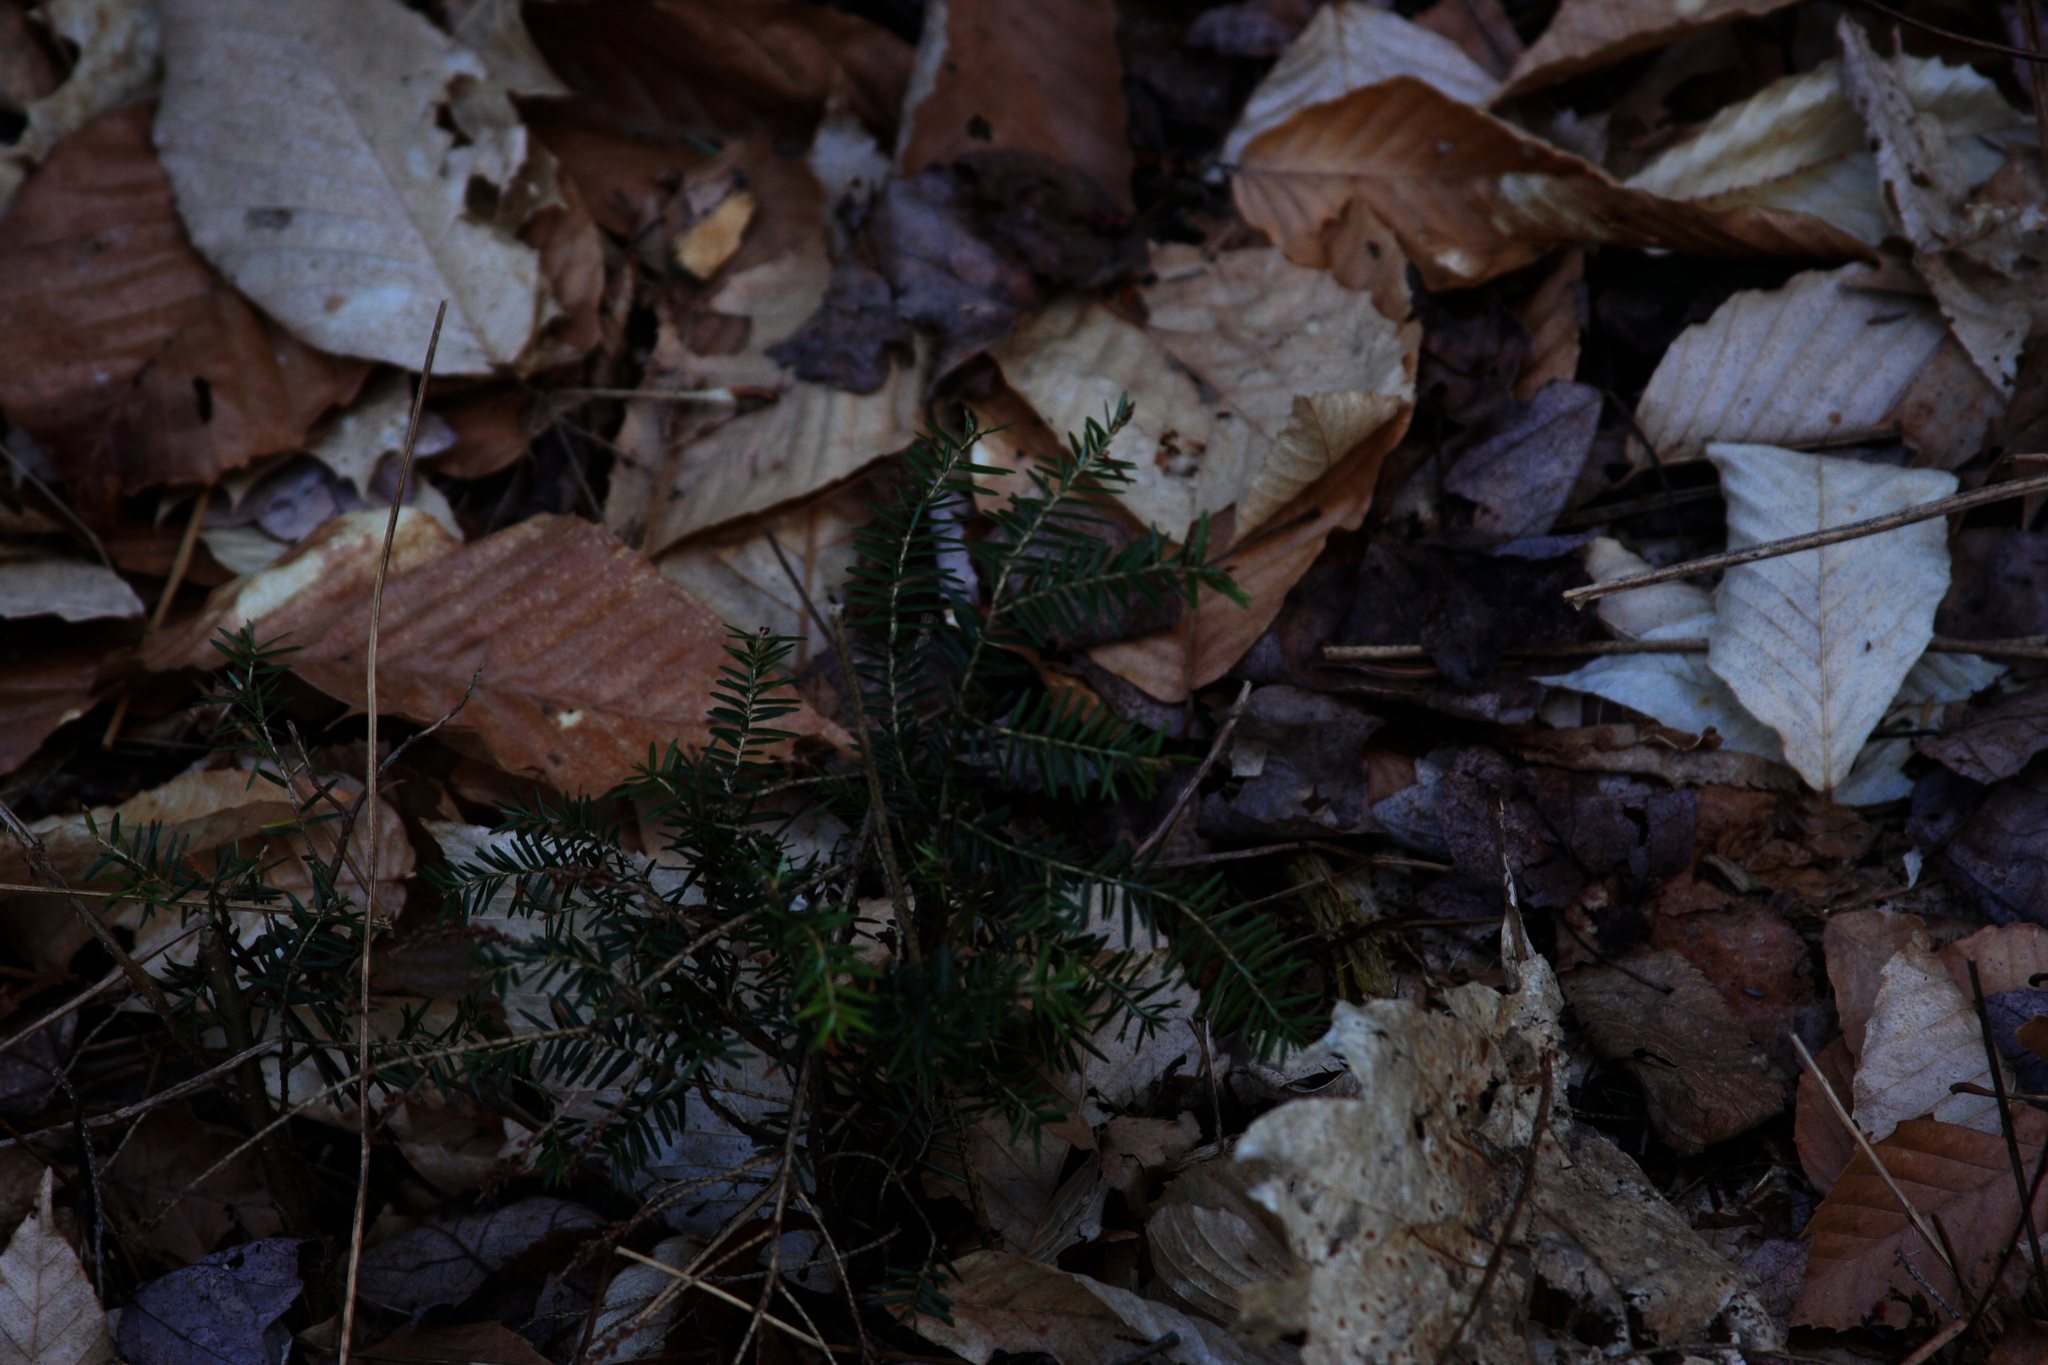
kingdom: Plantae
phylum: Tracheophyta
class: Pinopsida
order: Pinales
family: Pinaceae
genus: Tsuga
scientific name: Tsuga canadensis
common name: Eastern hemlock
